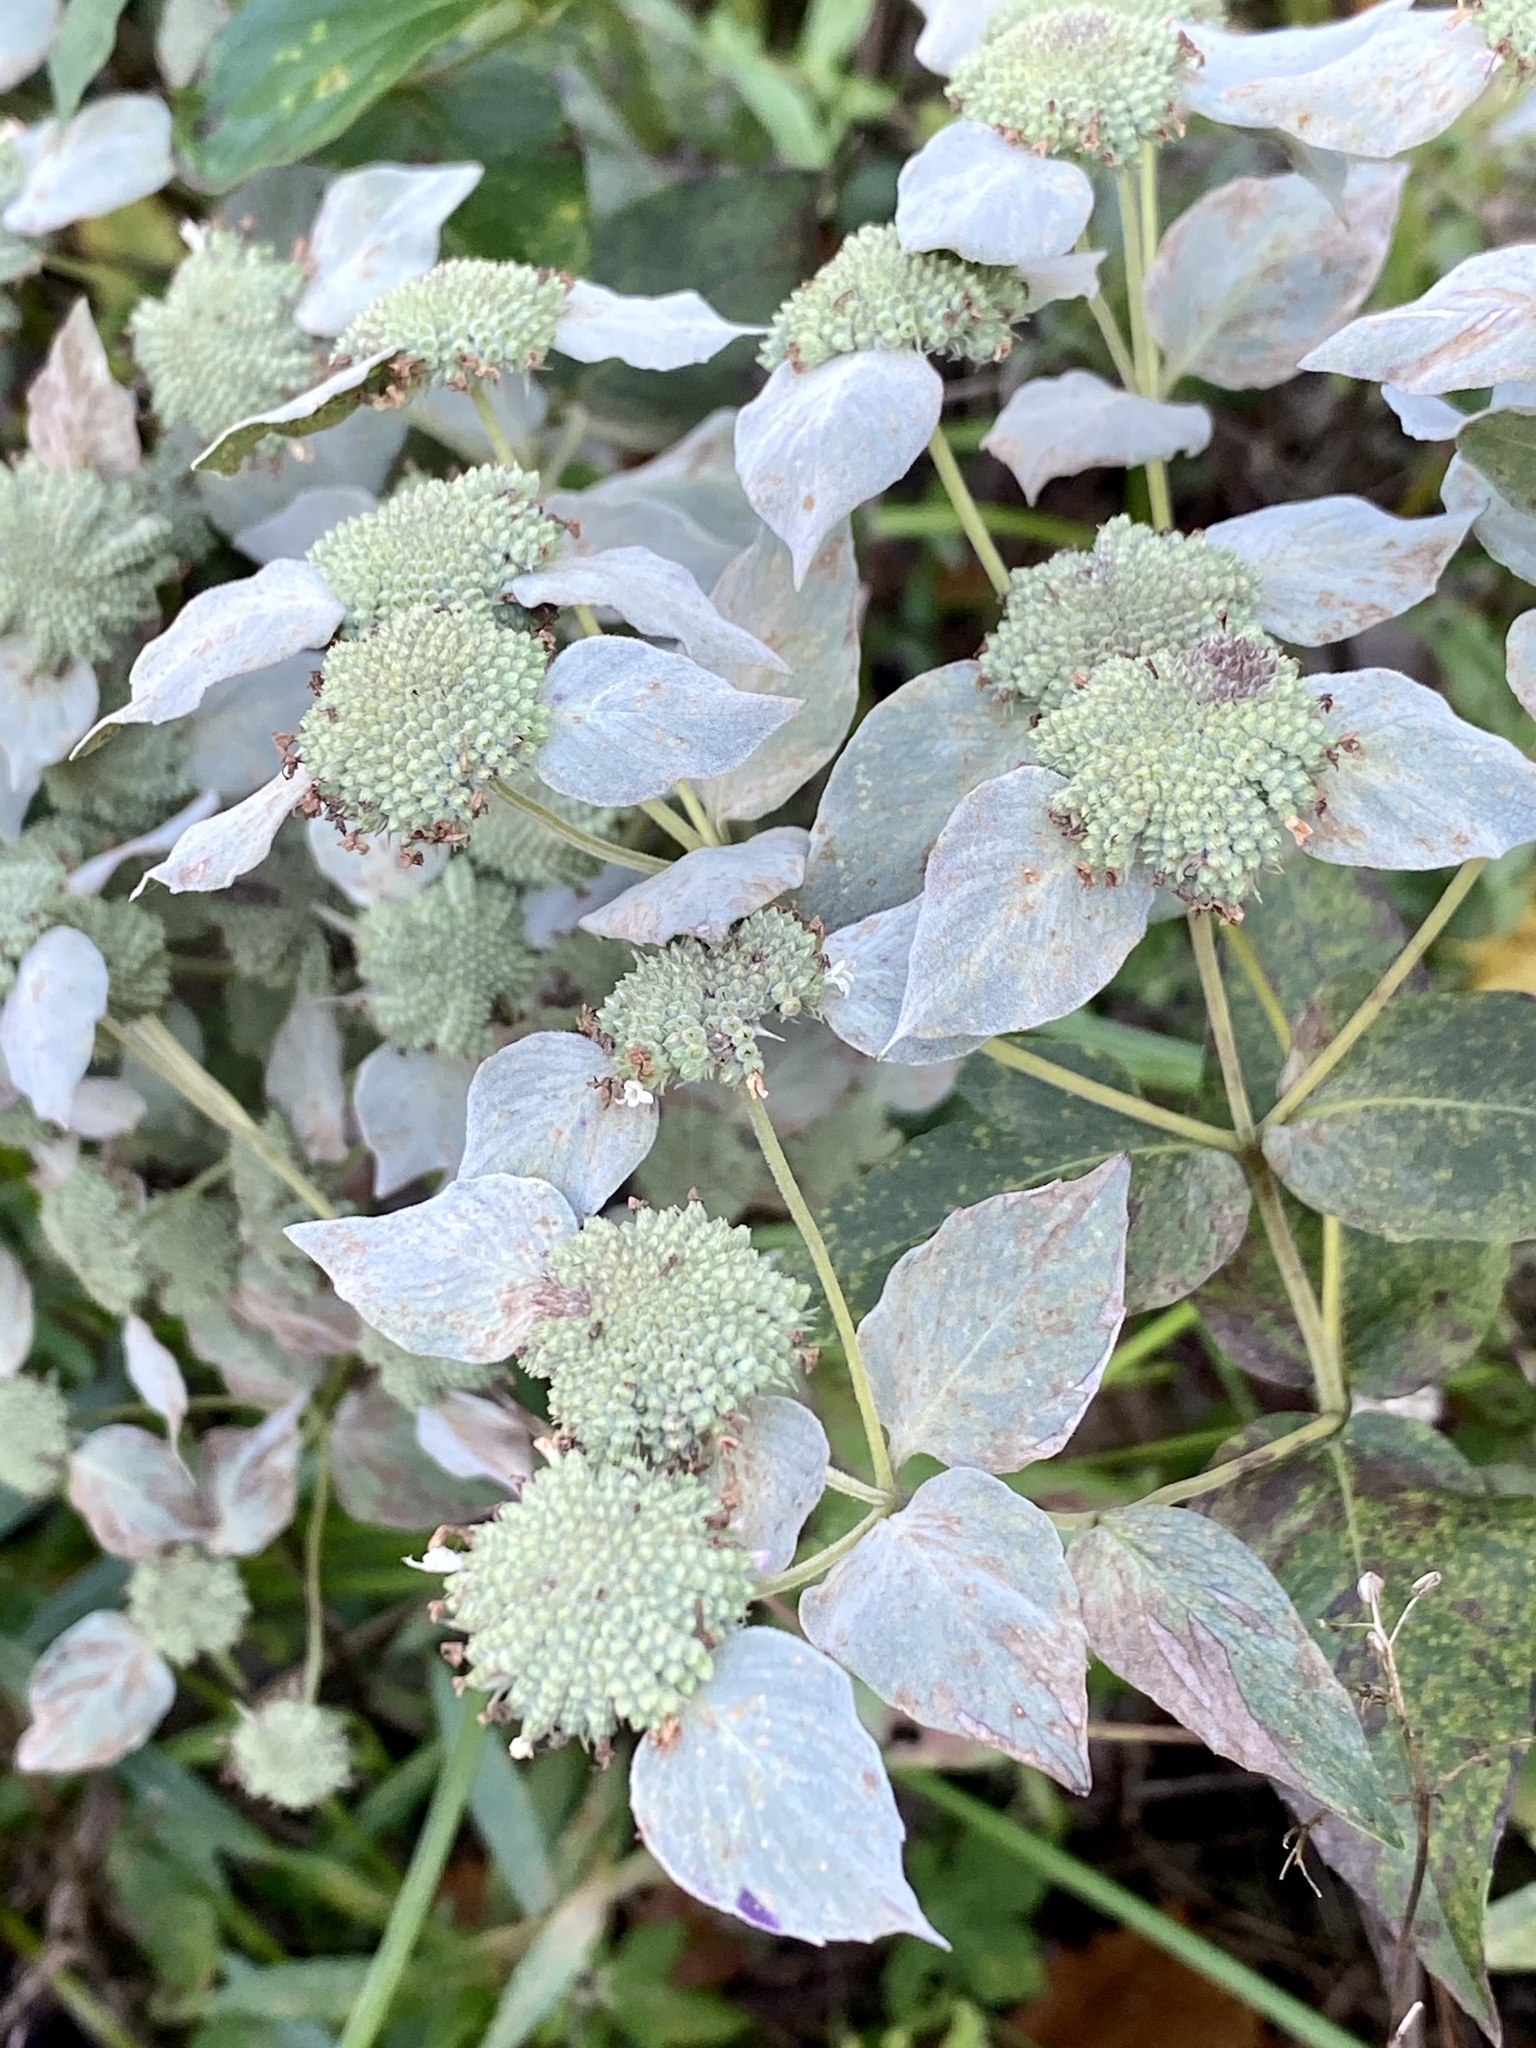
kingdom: Plantae
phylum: Tracheophyta
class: Magnoliopsida
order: Lamiales
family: Lamiaceae
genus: Pycnanthemum
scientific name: Pycnanthemum muticum
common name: Blunt mountain-mint
